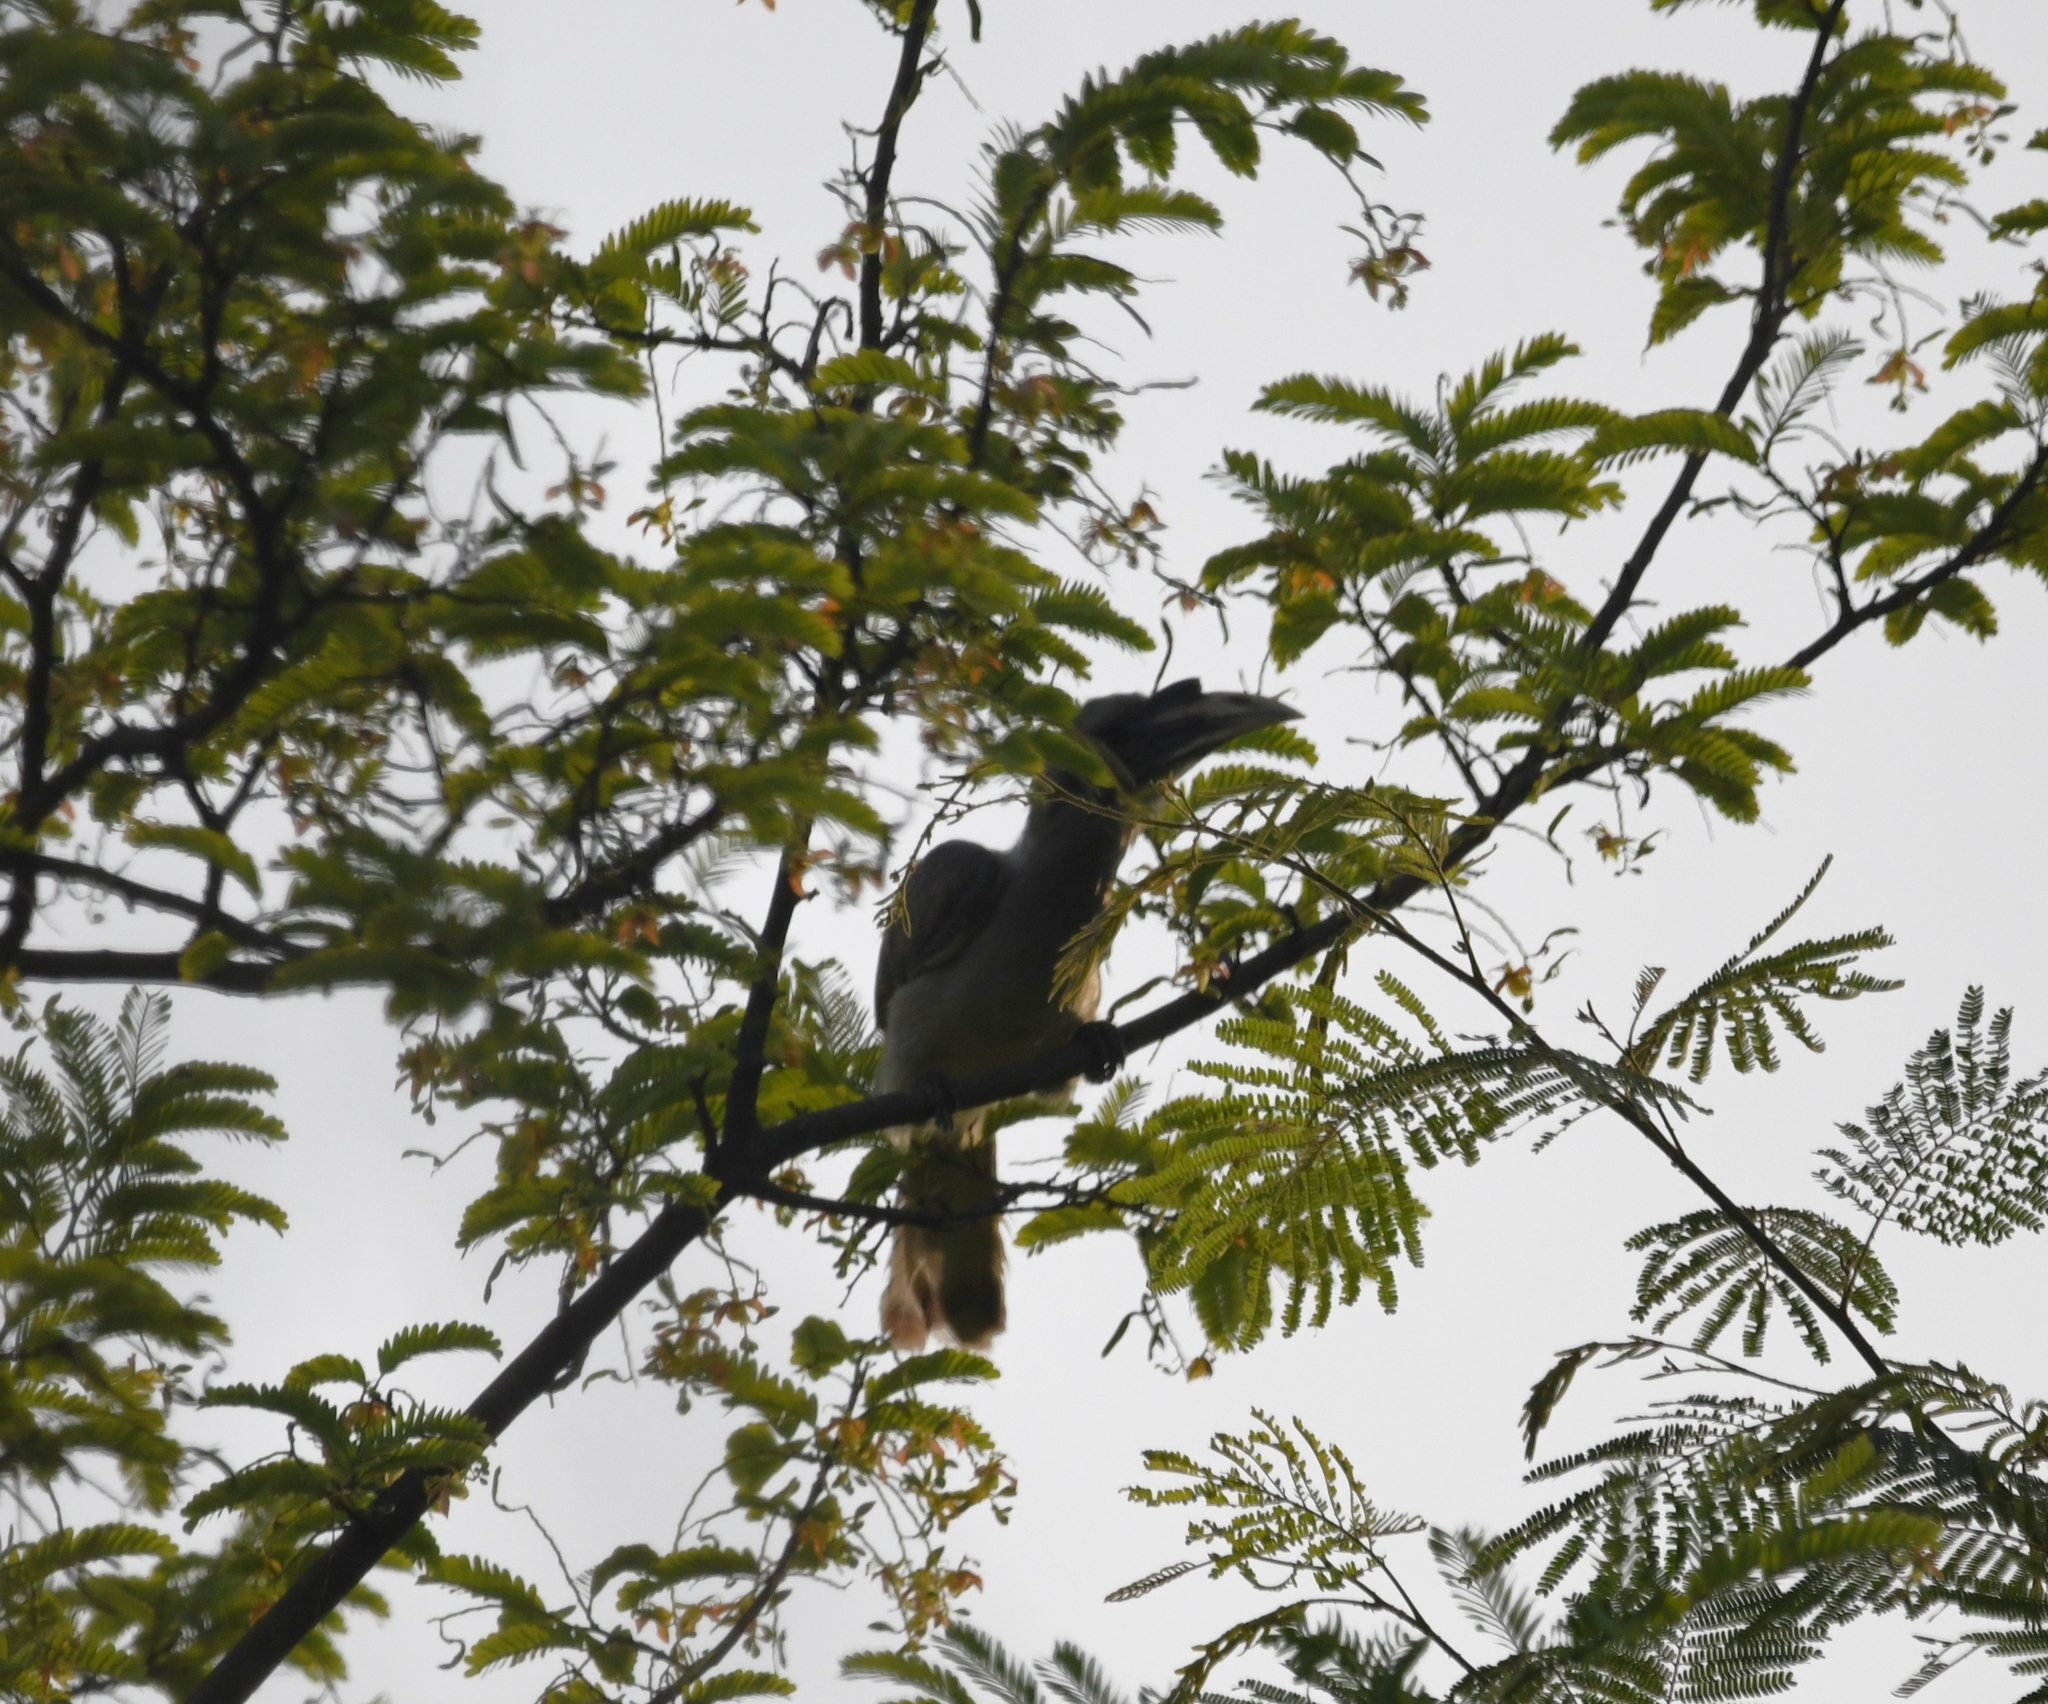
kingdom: Animalia
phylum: Chordata
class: Aves
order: Bucerotiformes
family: Bucerotidae
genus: Ocyceros
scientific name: Ocyceros birostris
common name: Indian grey hornbill
